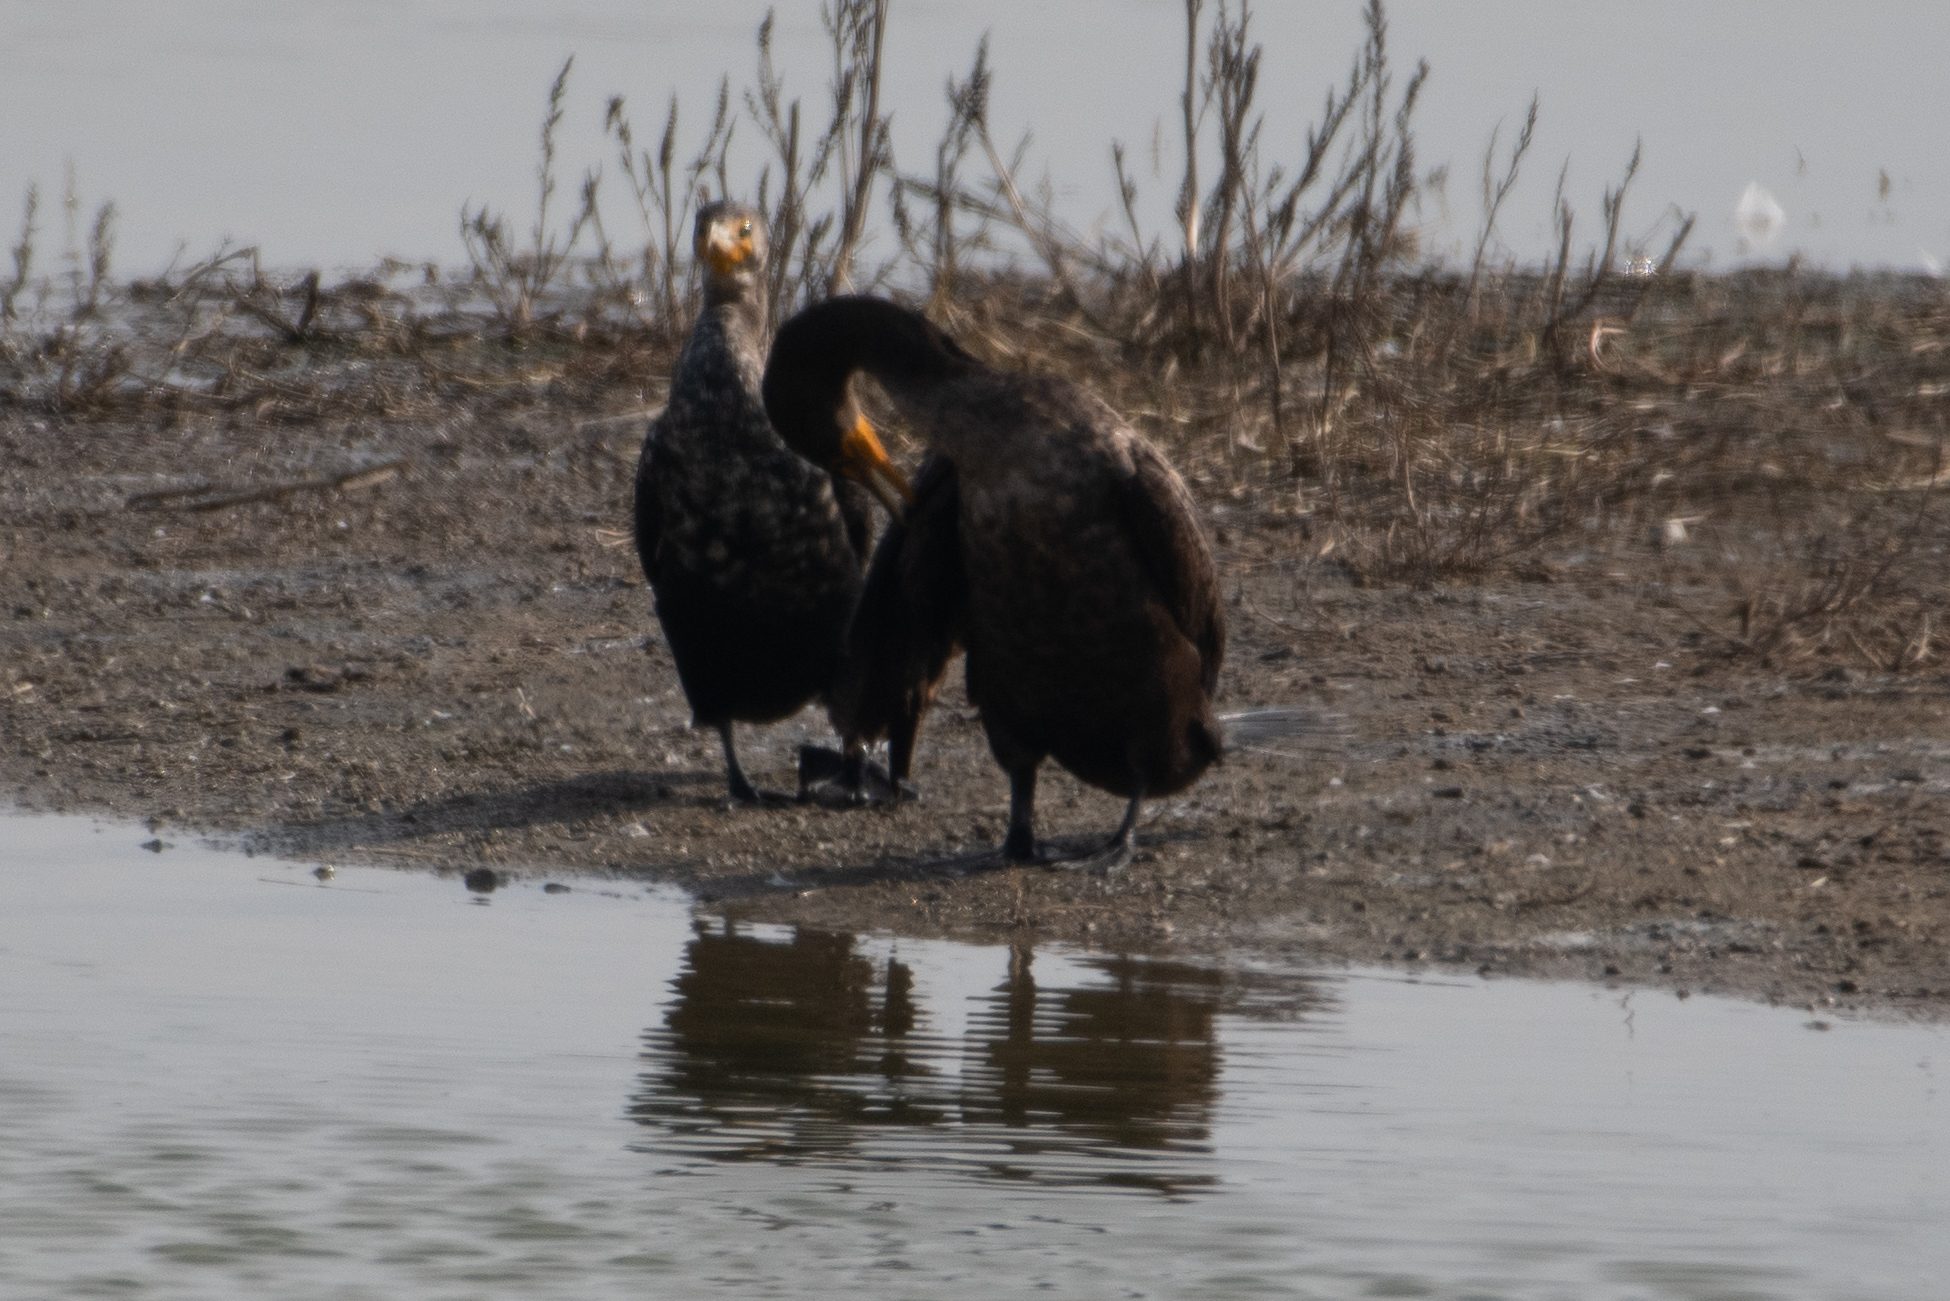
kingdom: Animalia
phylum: Chordata
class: Aves
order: Suliformes
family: Phalacrocoracidae
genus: Phalacrocorax
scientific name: Phalacrocorax auritus
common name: Double-crested cormorant
